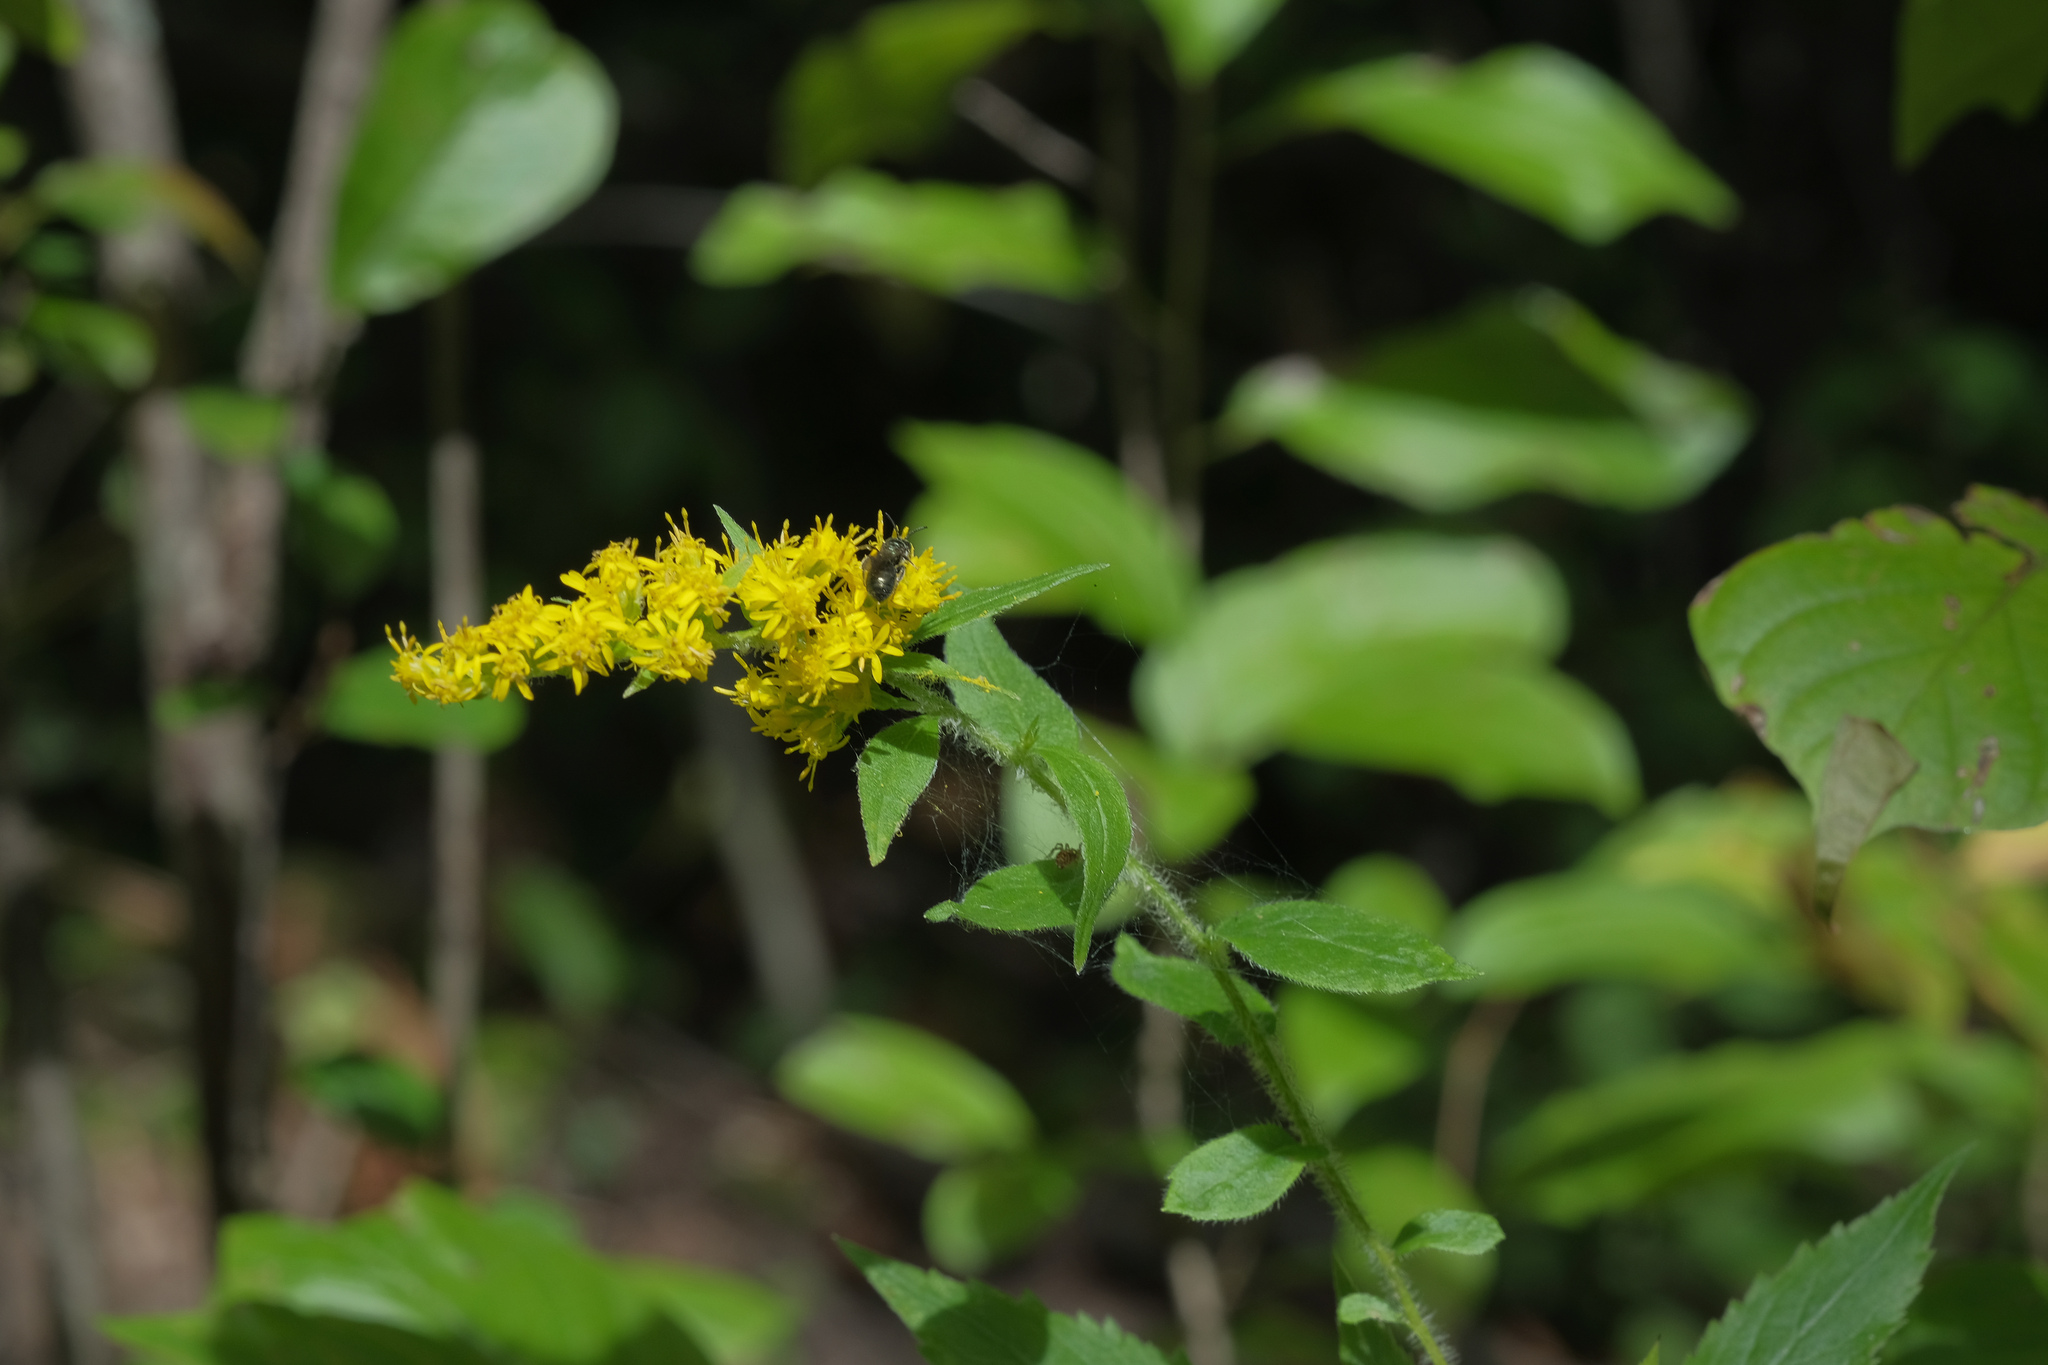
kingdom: Plantae
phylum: Tracheophyta
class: Magnoliopsida
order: Asterales
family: Asteraceae
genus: Solidago
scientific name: Solidago rugosa
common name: Rough-stemmed goldenrod
